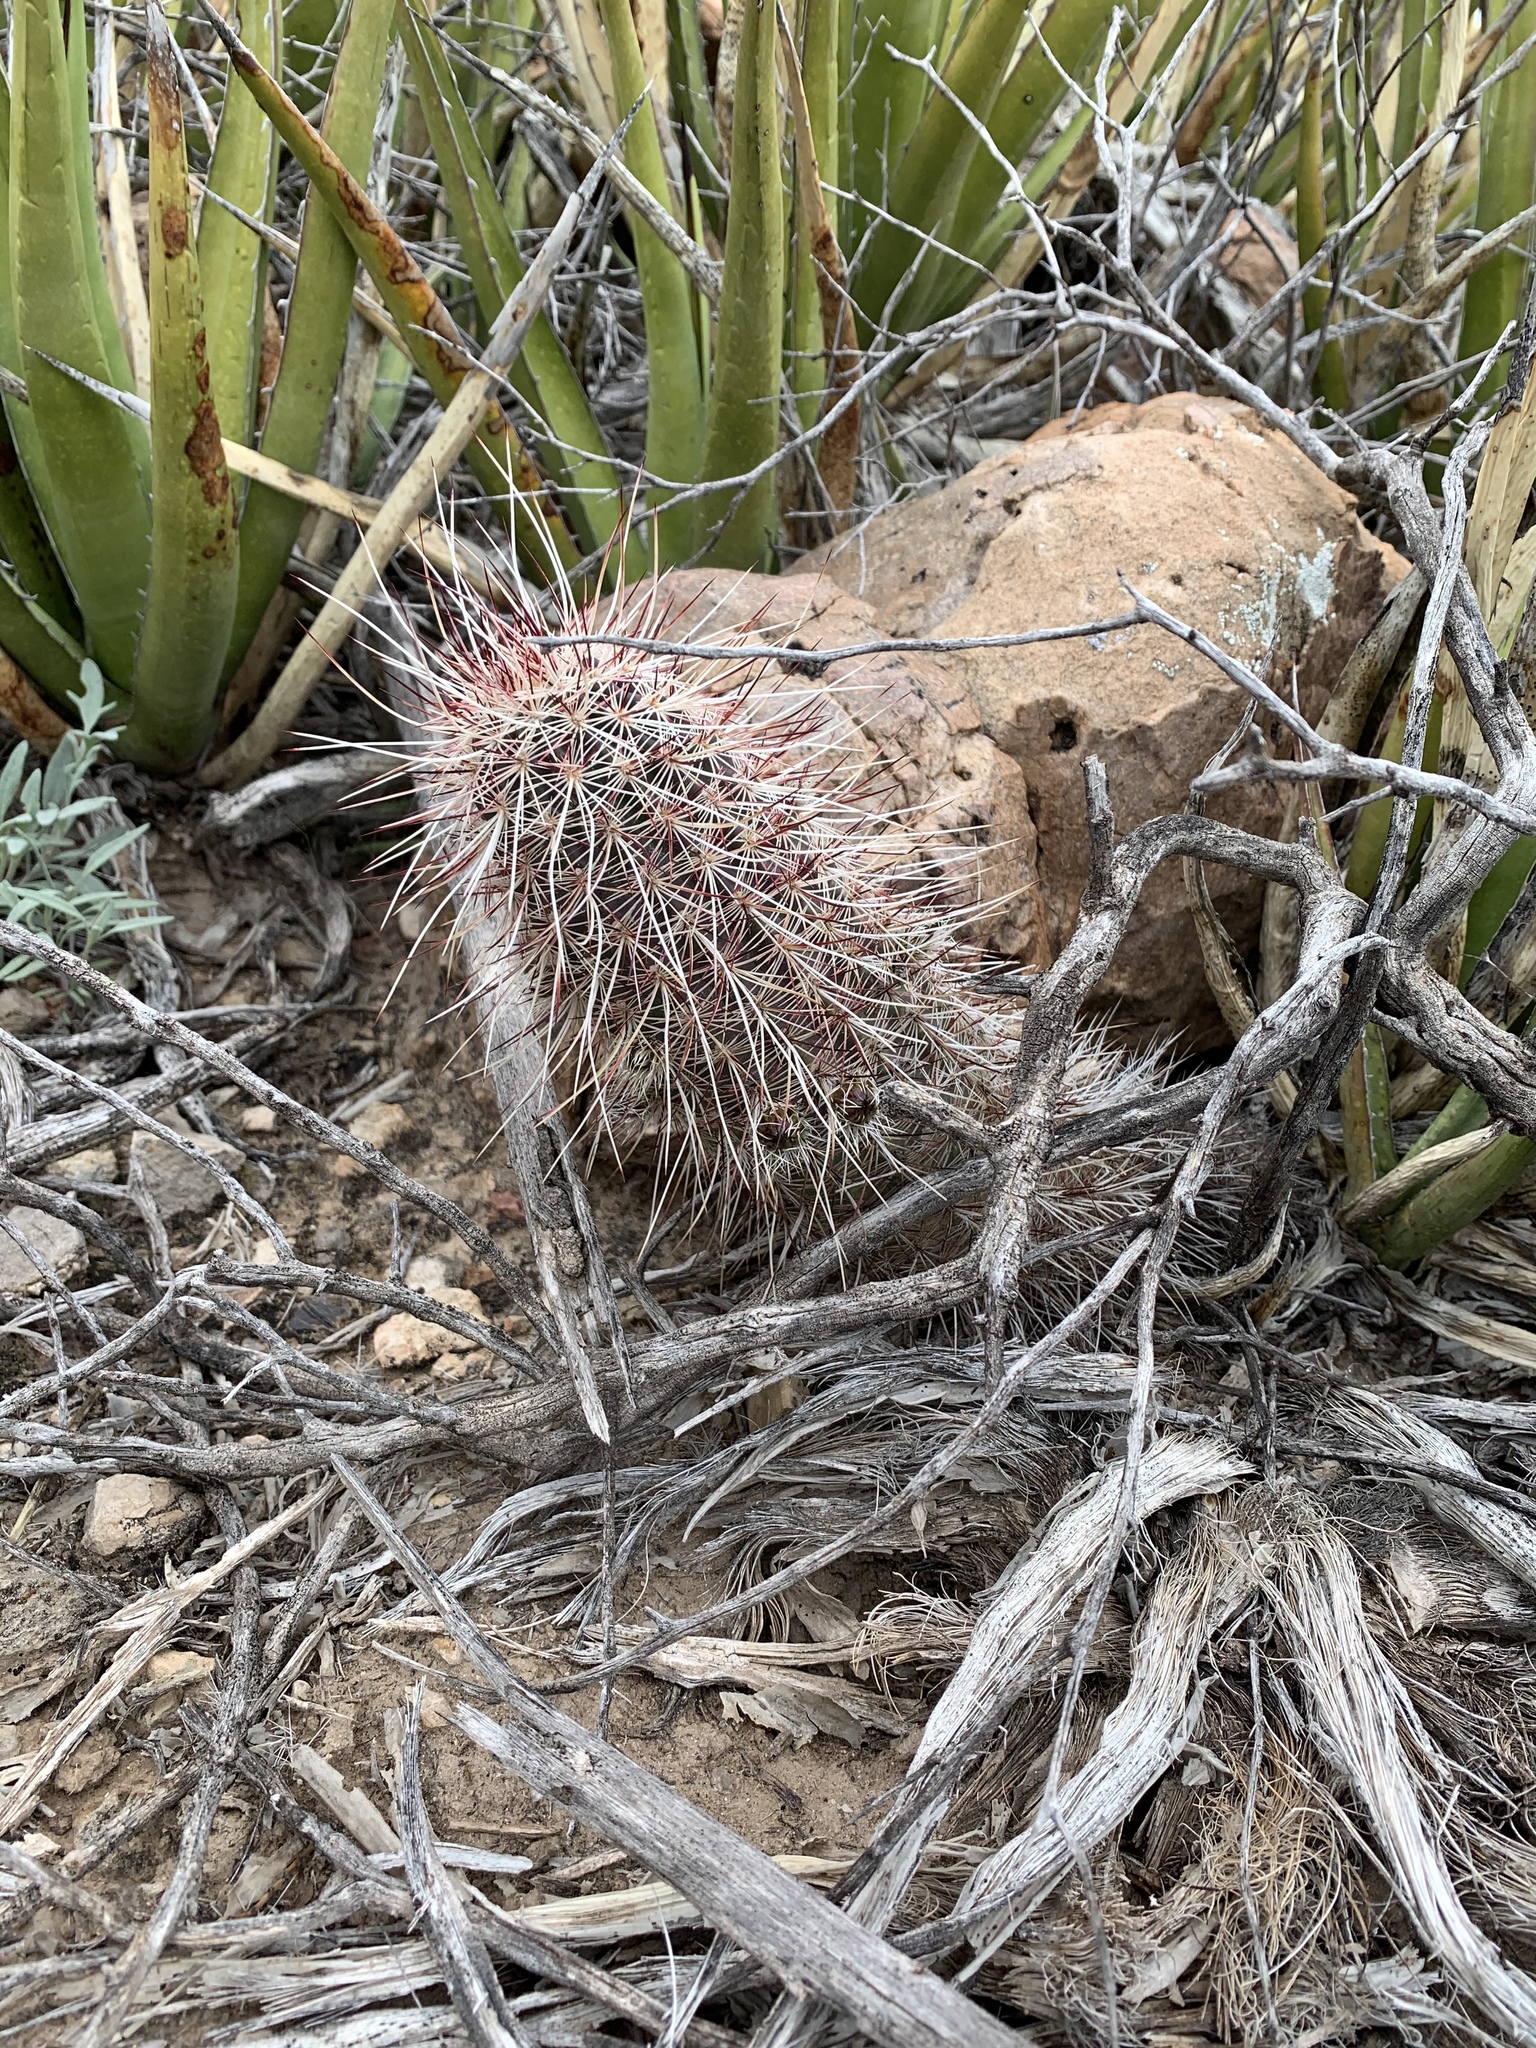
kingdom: Plantae
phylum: Tracheophyta
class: Magnoliopsida
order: Caryophyllales
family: Cactaceae
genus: Echinocereus
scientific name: Echinocereus viridiflorus
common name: Nylon hedgehog cactus
